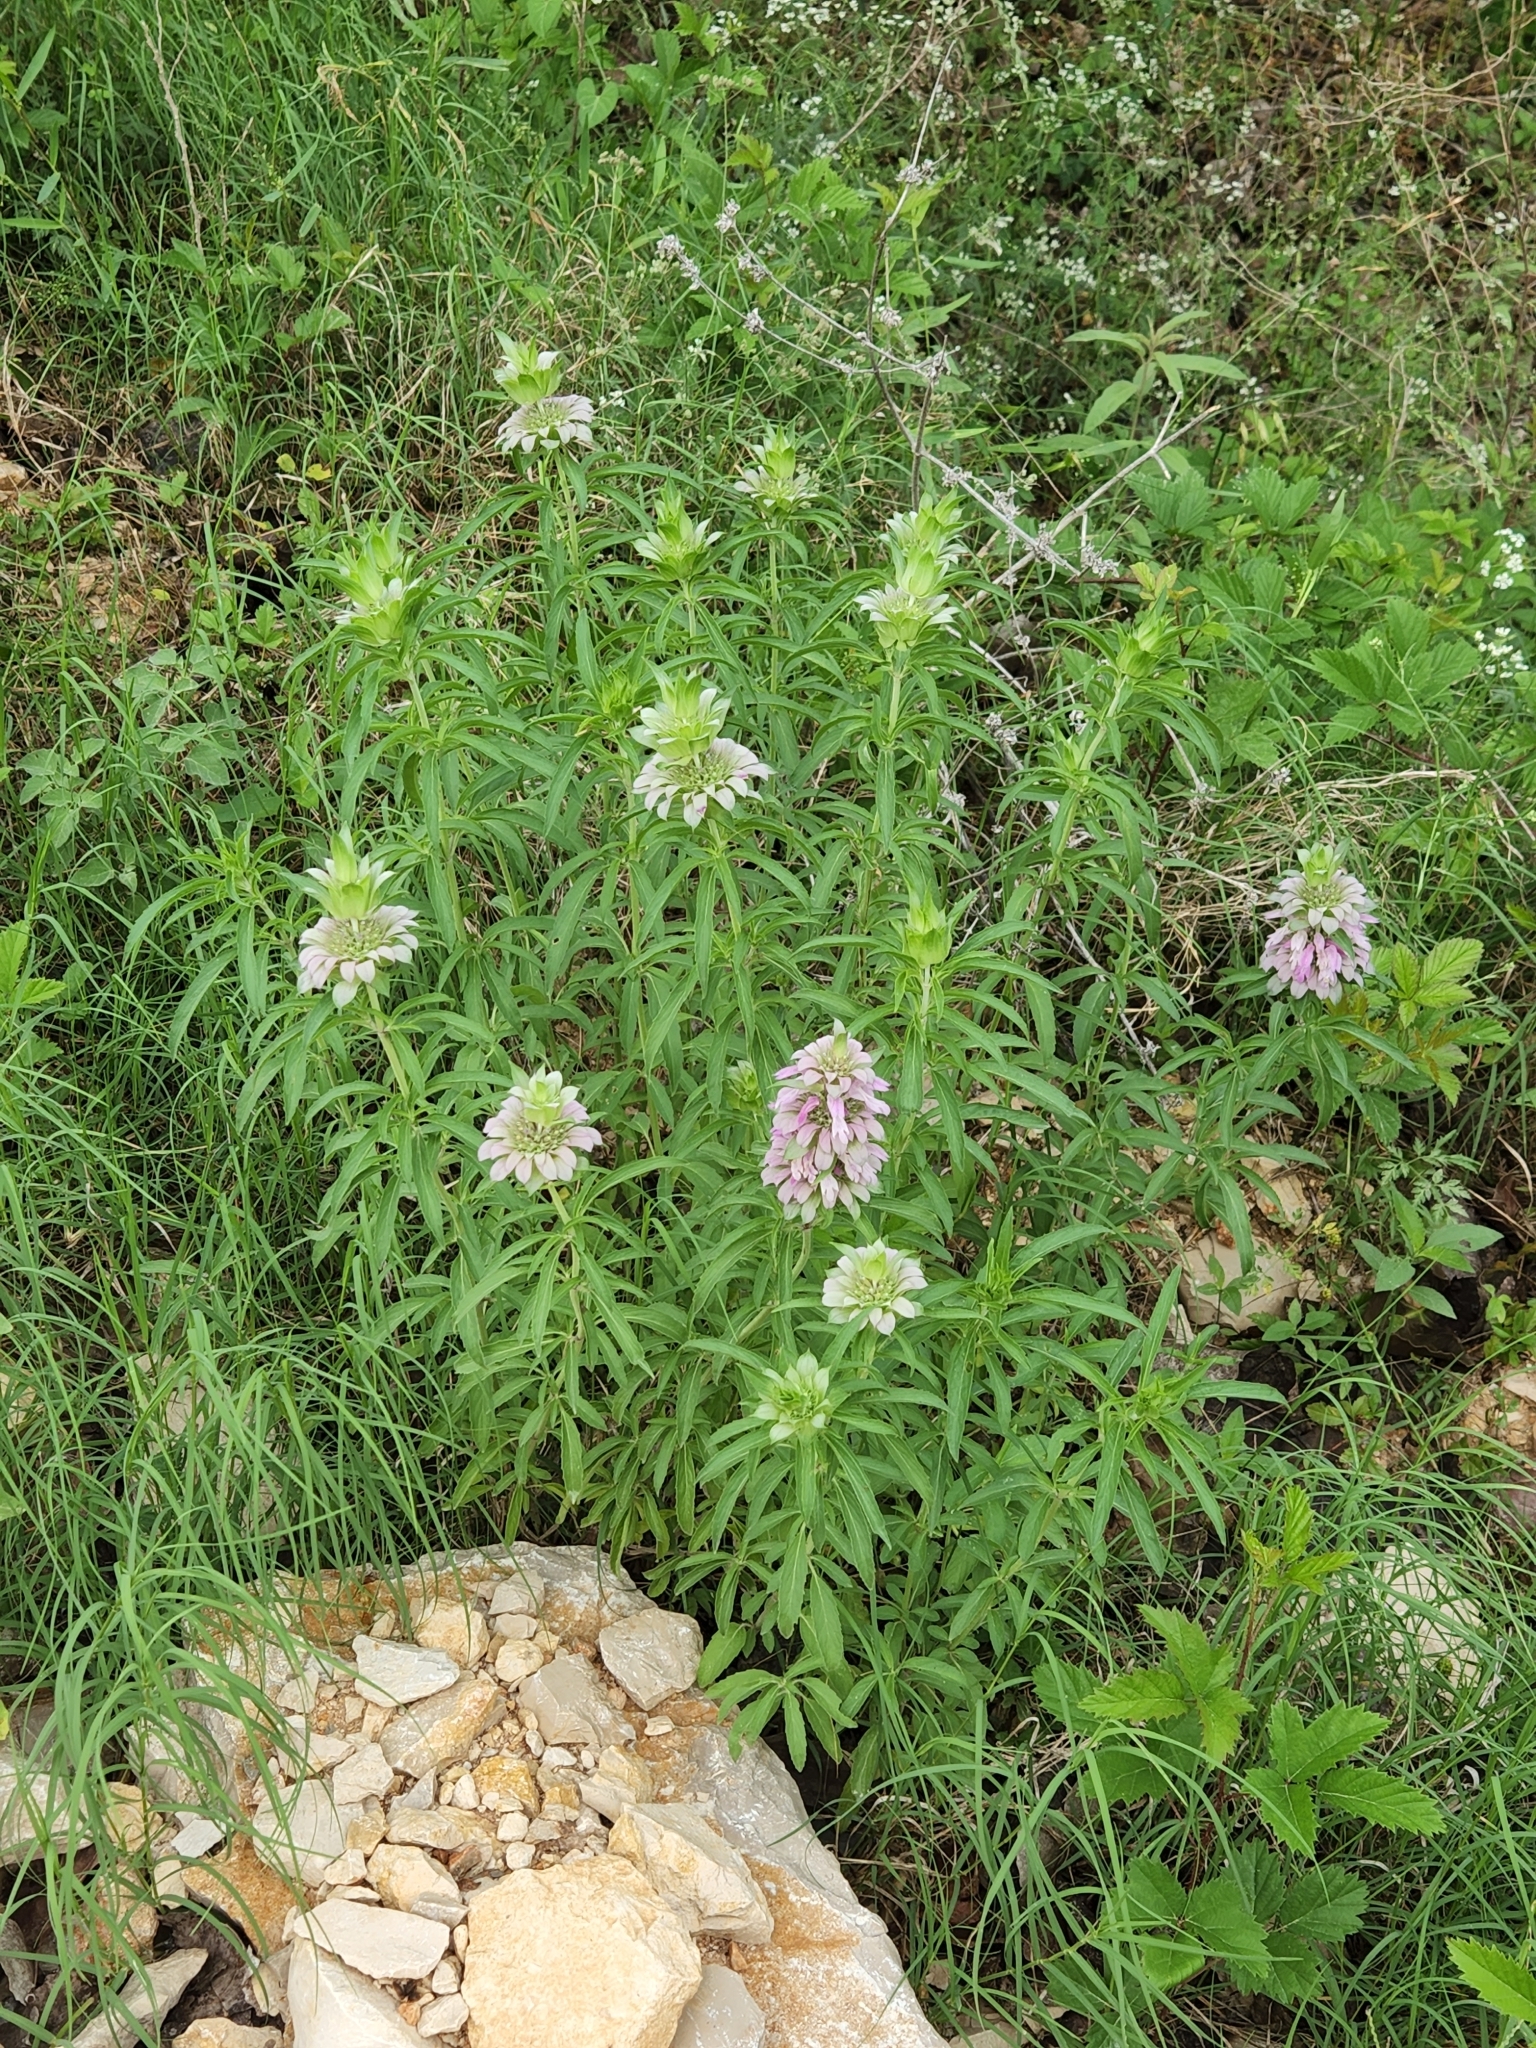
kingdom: Plantae
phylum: Tracheophyta
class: Magnoliopsida
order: Lamiales
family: Lamiaceae
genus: Monarda
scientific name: Monarda citriodora
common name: Lemon beebalm
